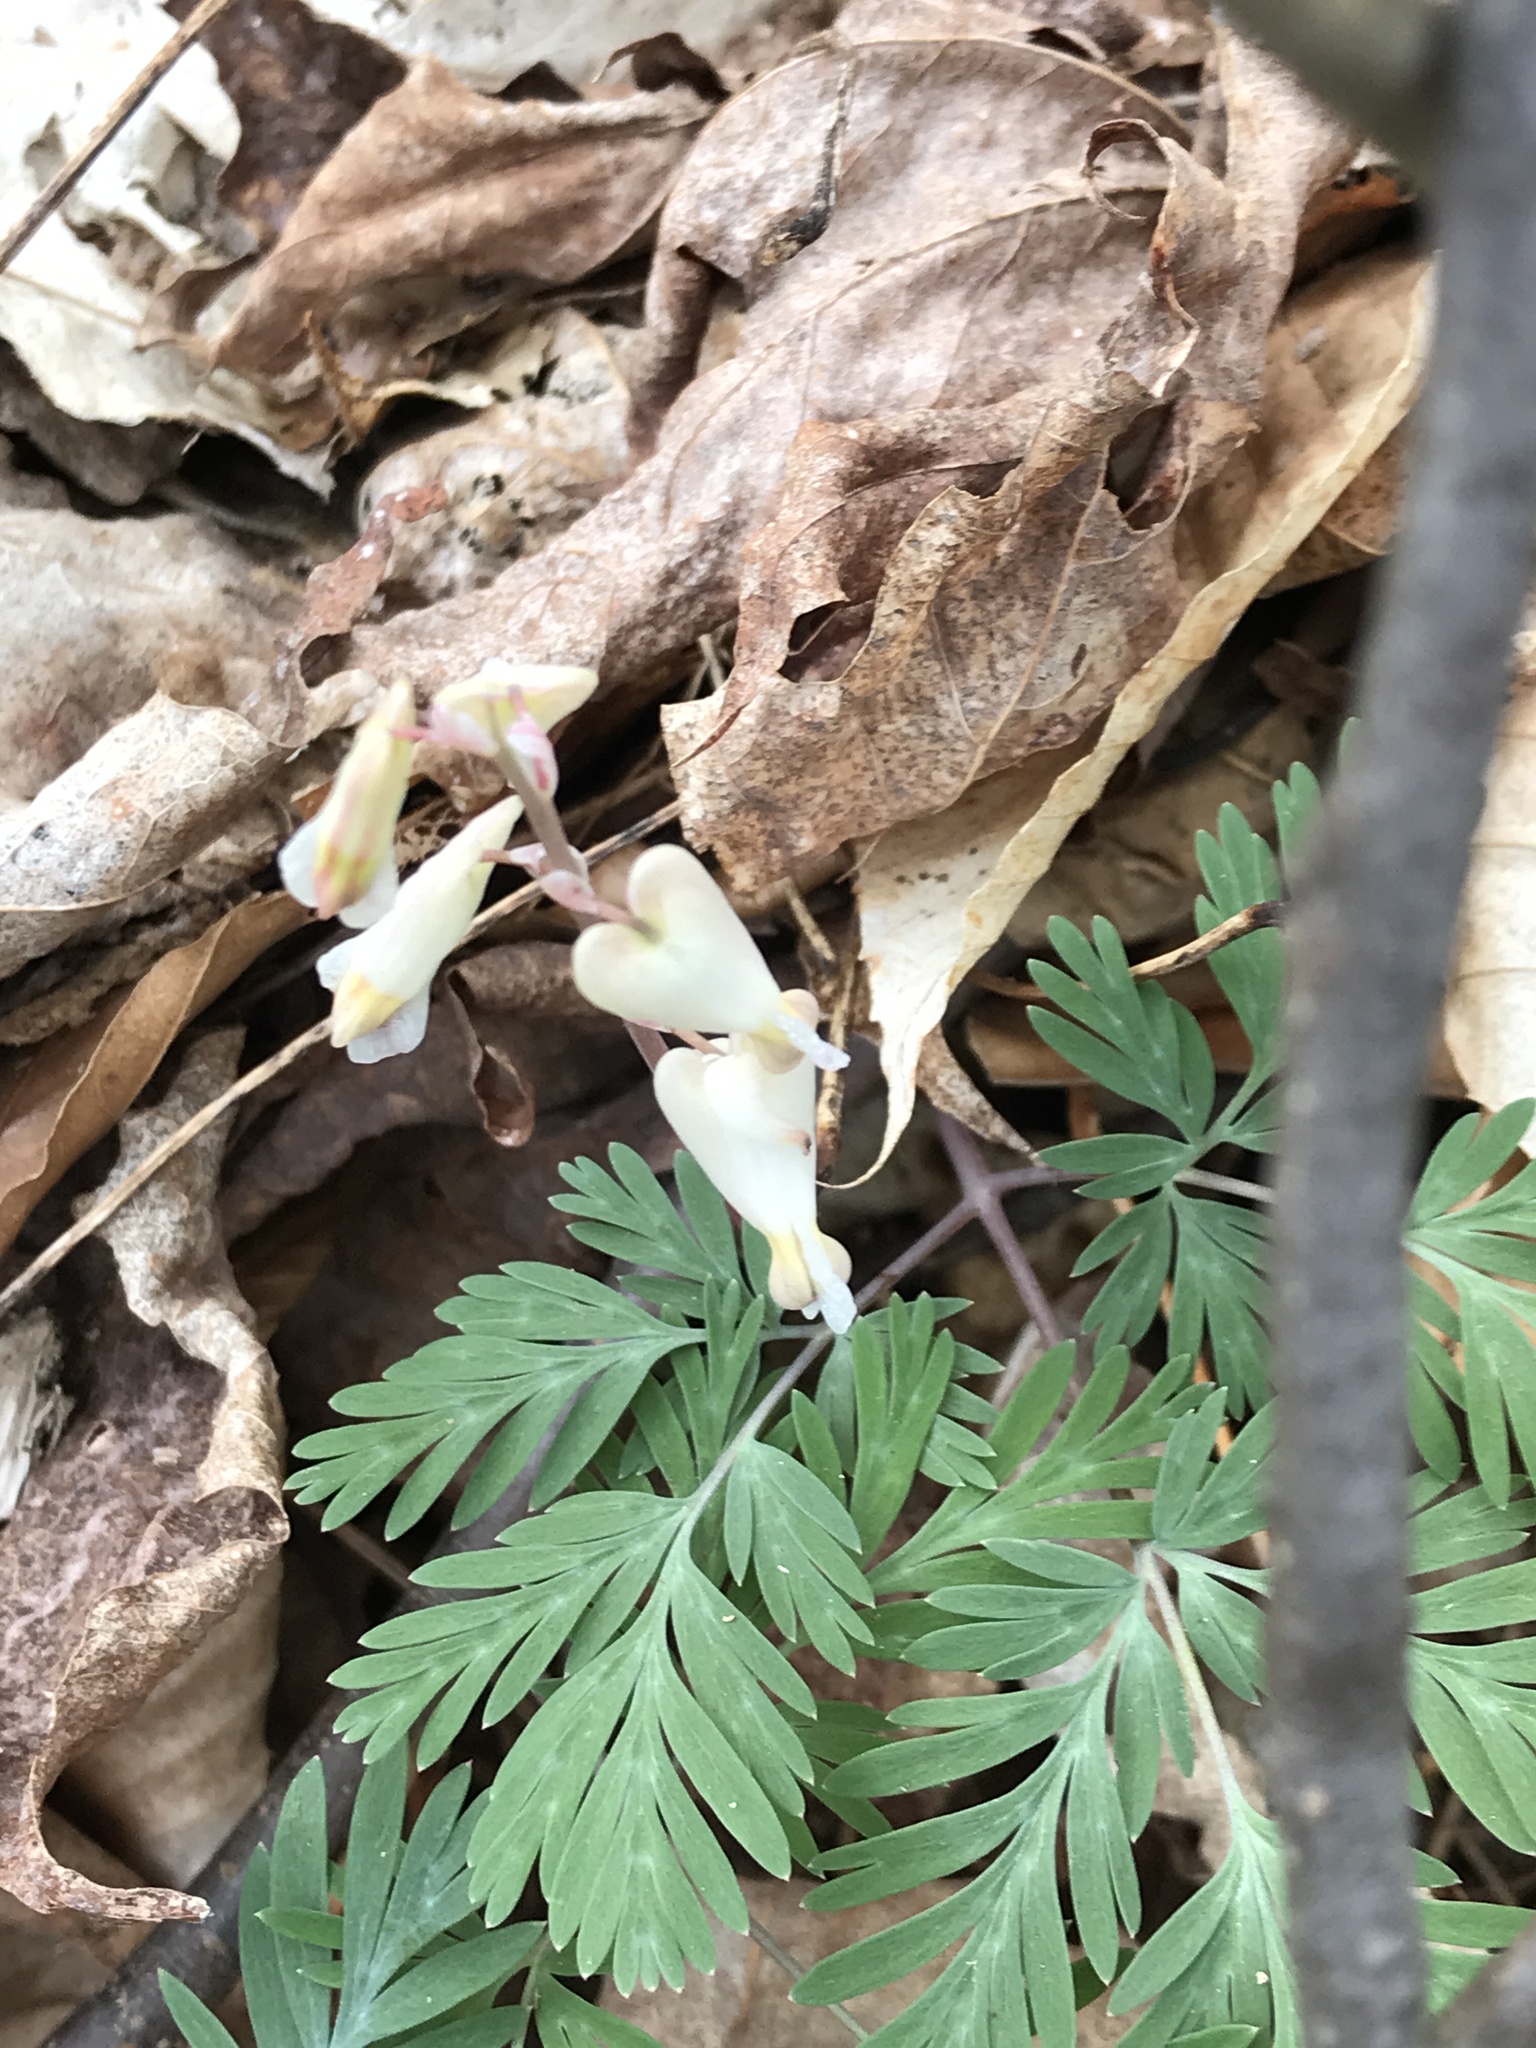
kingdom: Plantae
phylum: Tracheophyta
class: Magnoliopsida
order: Ranunculales
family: Papaveraceae
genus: Dicentra
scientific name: Dicentra canadensis
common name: Squirrel-corn
